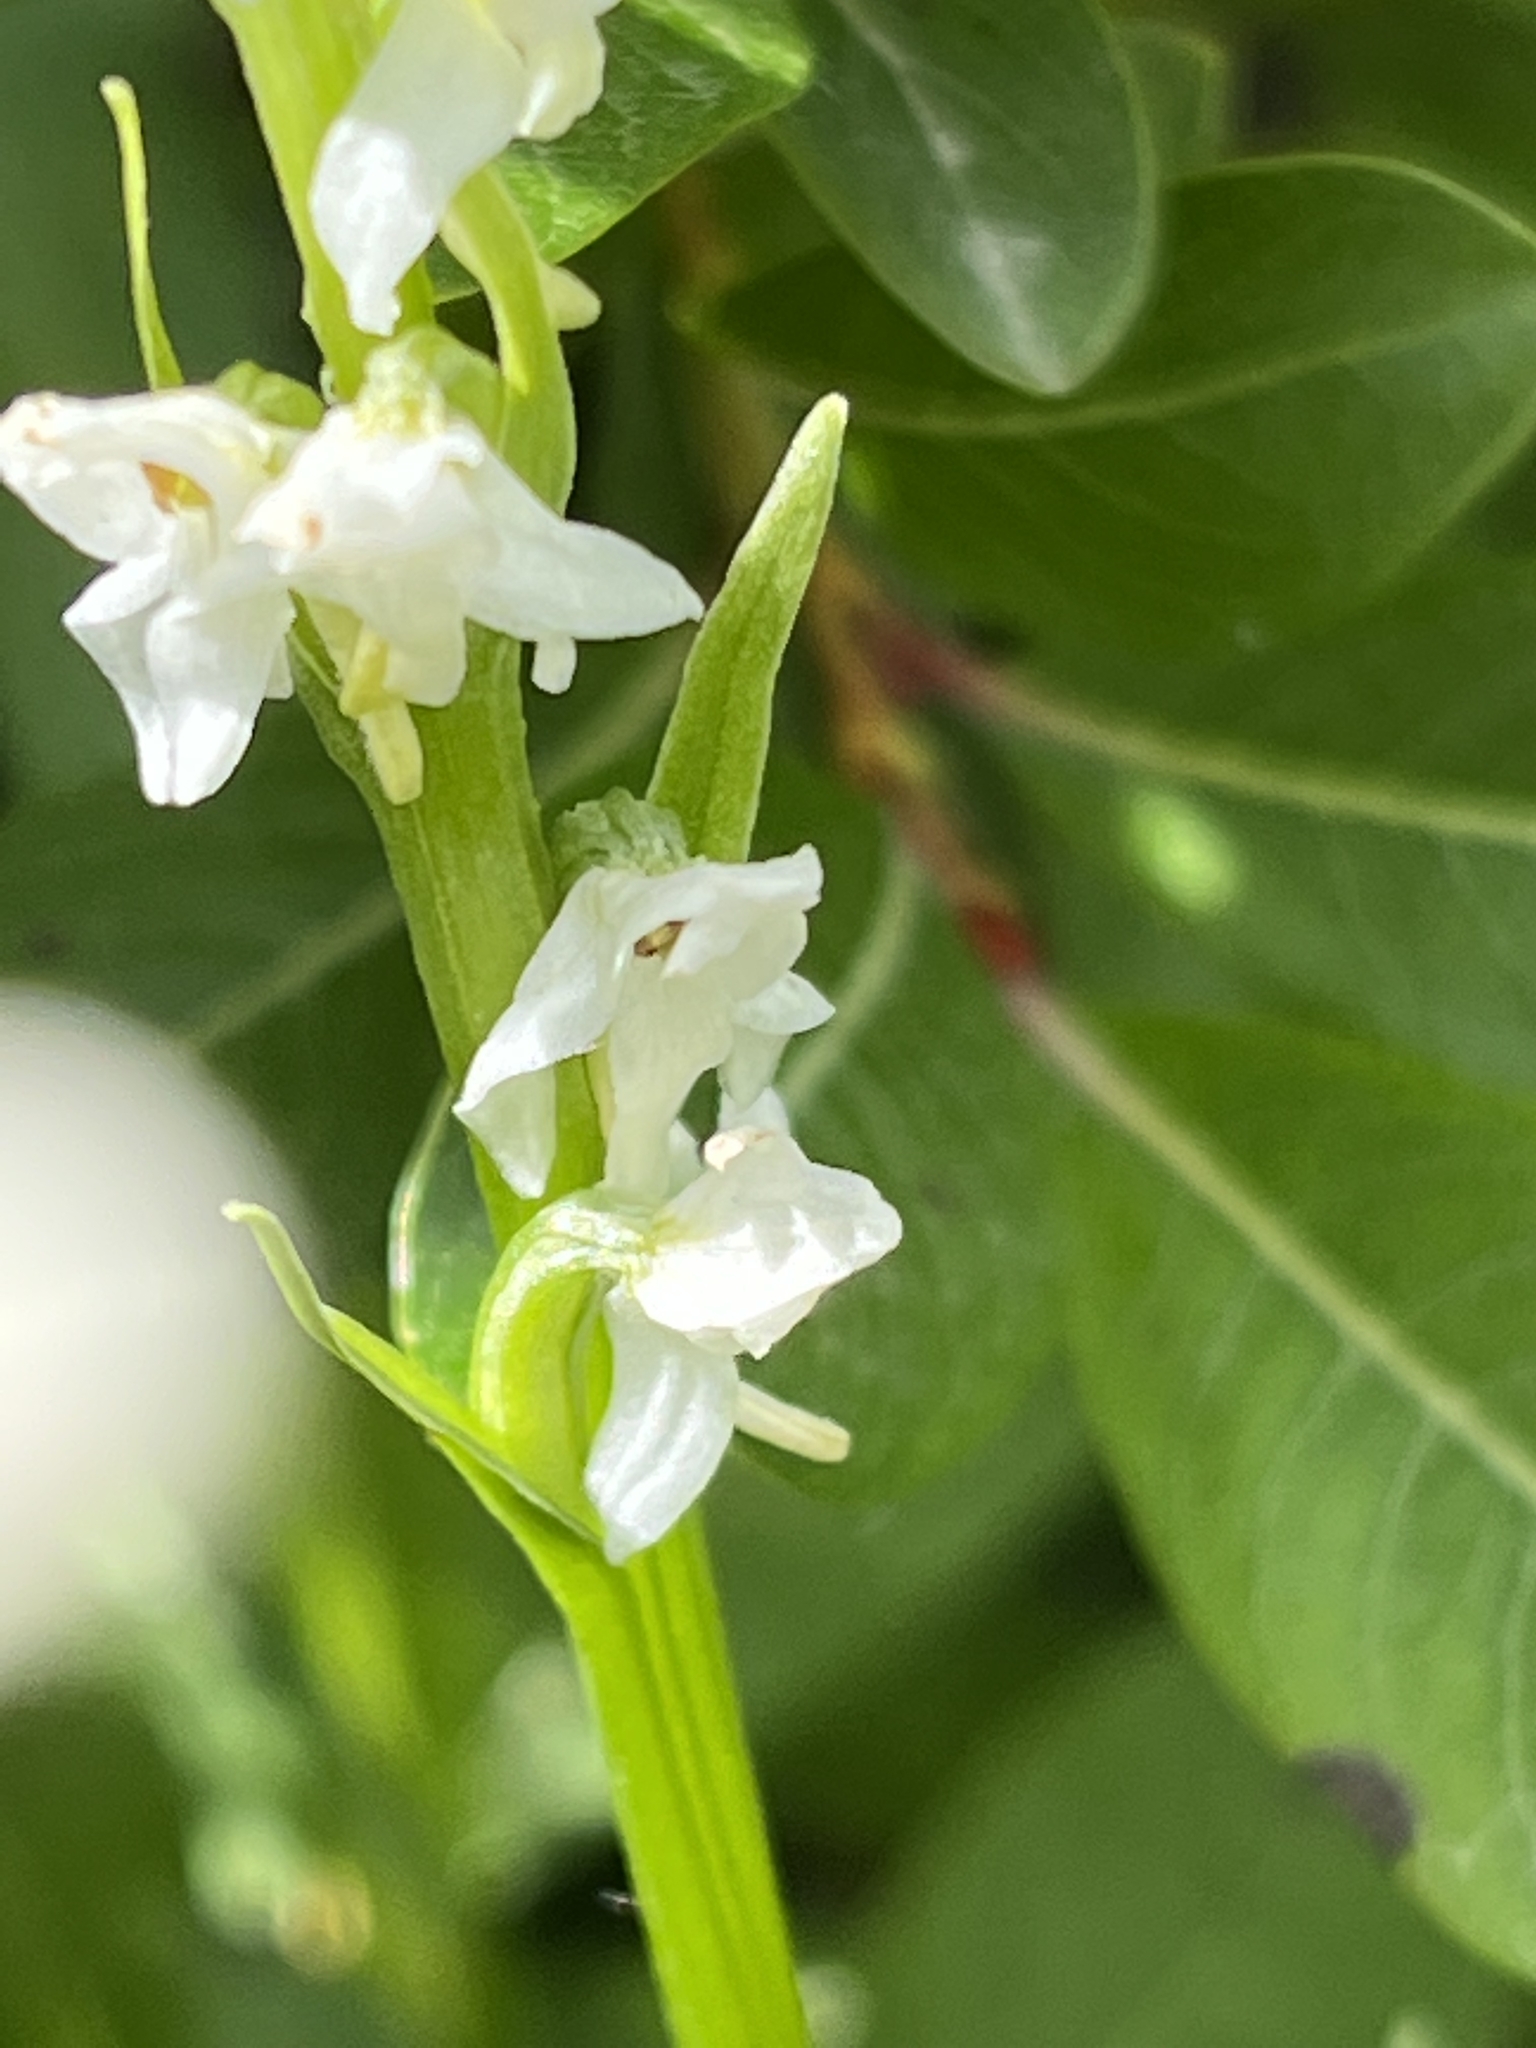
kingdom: Plantae
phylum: Tracheophyta
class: Liliopsida
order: Asparagales
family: Orchidaceae
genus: Platanthera
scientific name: Platanthera dilatata
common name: Bog candles
